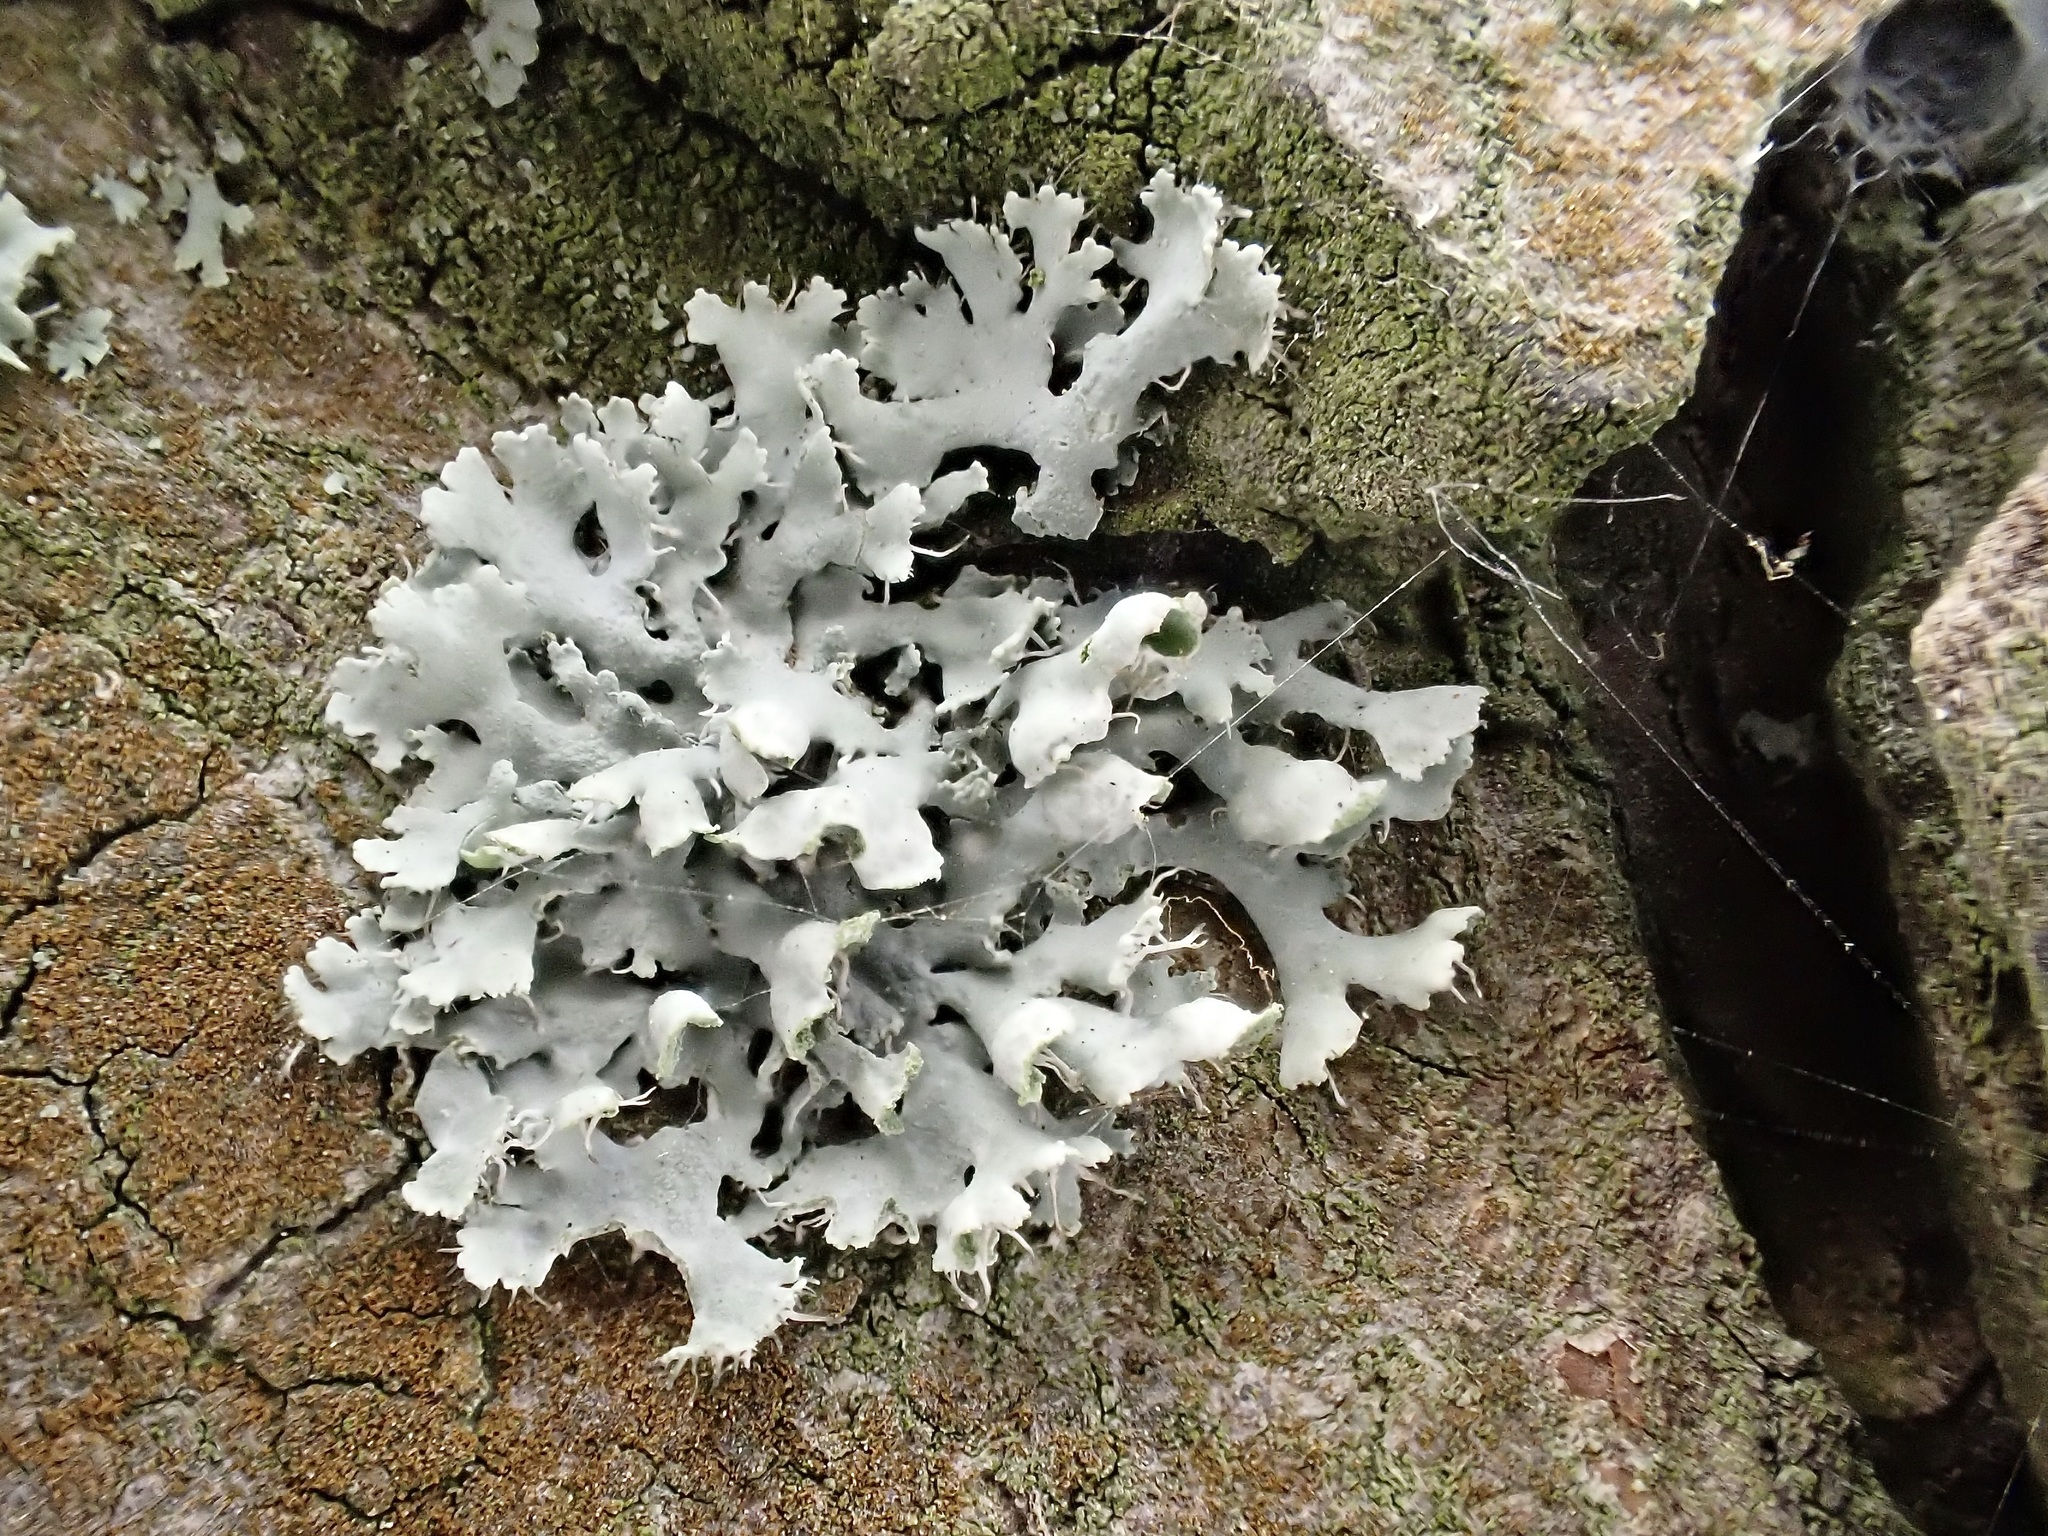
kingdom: Fungi
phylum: Ascomycota
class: Lecanoromycetes
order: Caliciales
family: Physciaceae
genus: Physcia
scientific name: Physcia adscendens
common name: Hooded rosette lichen
